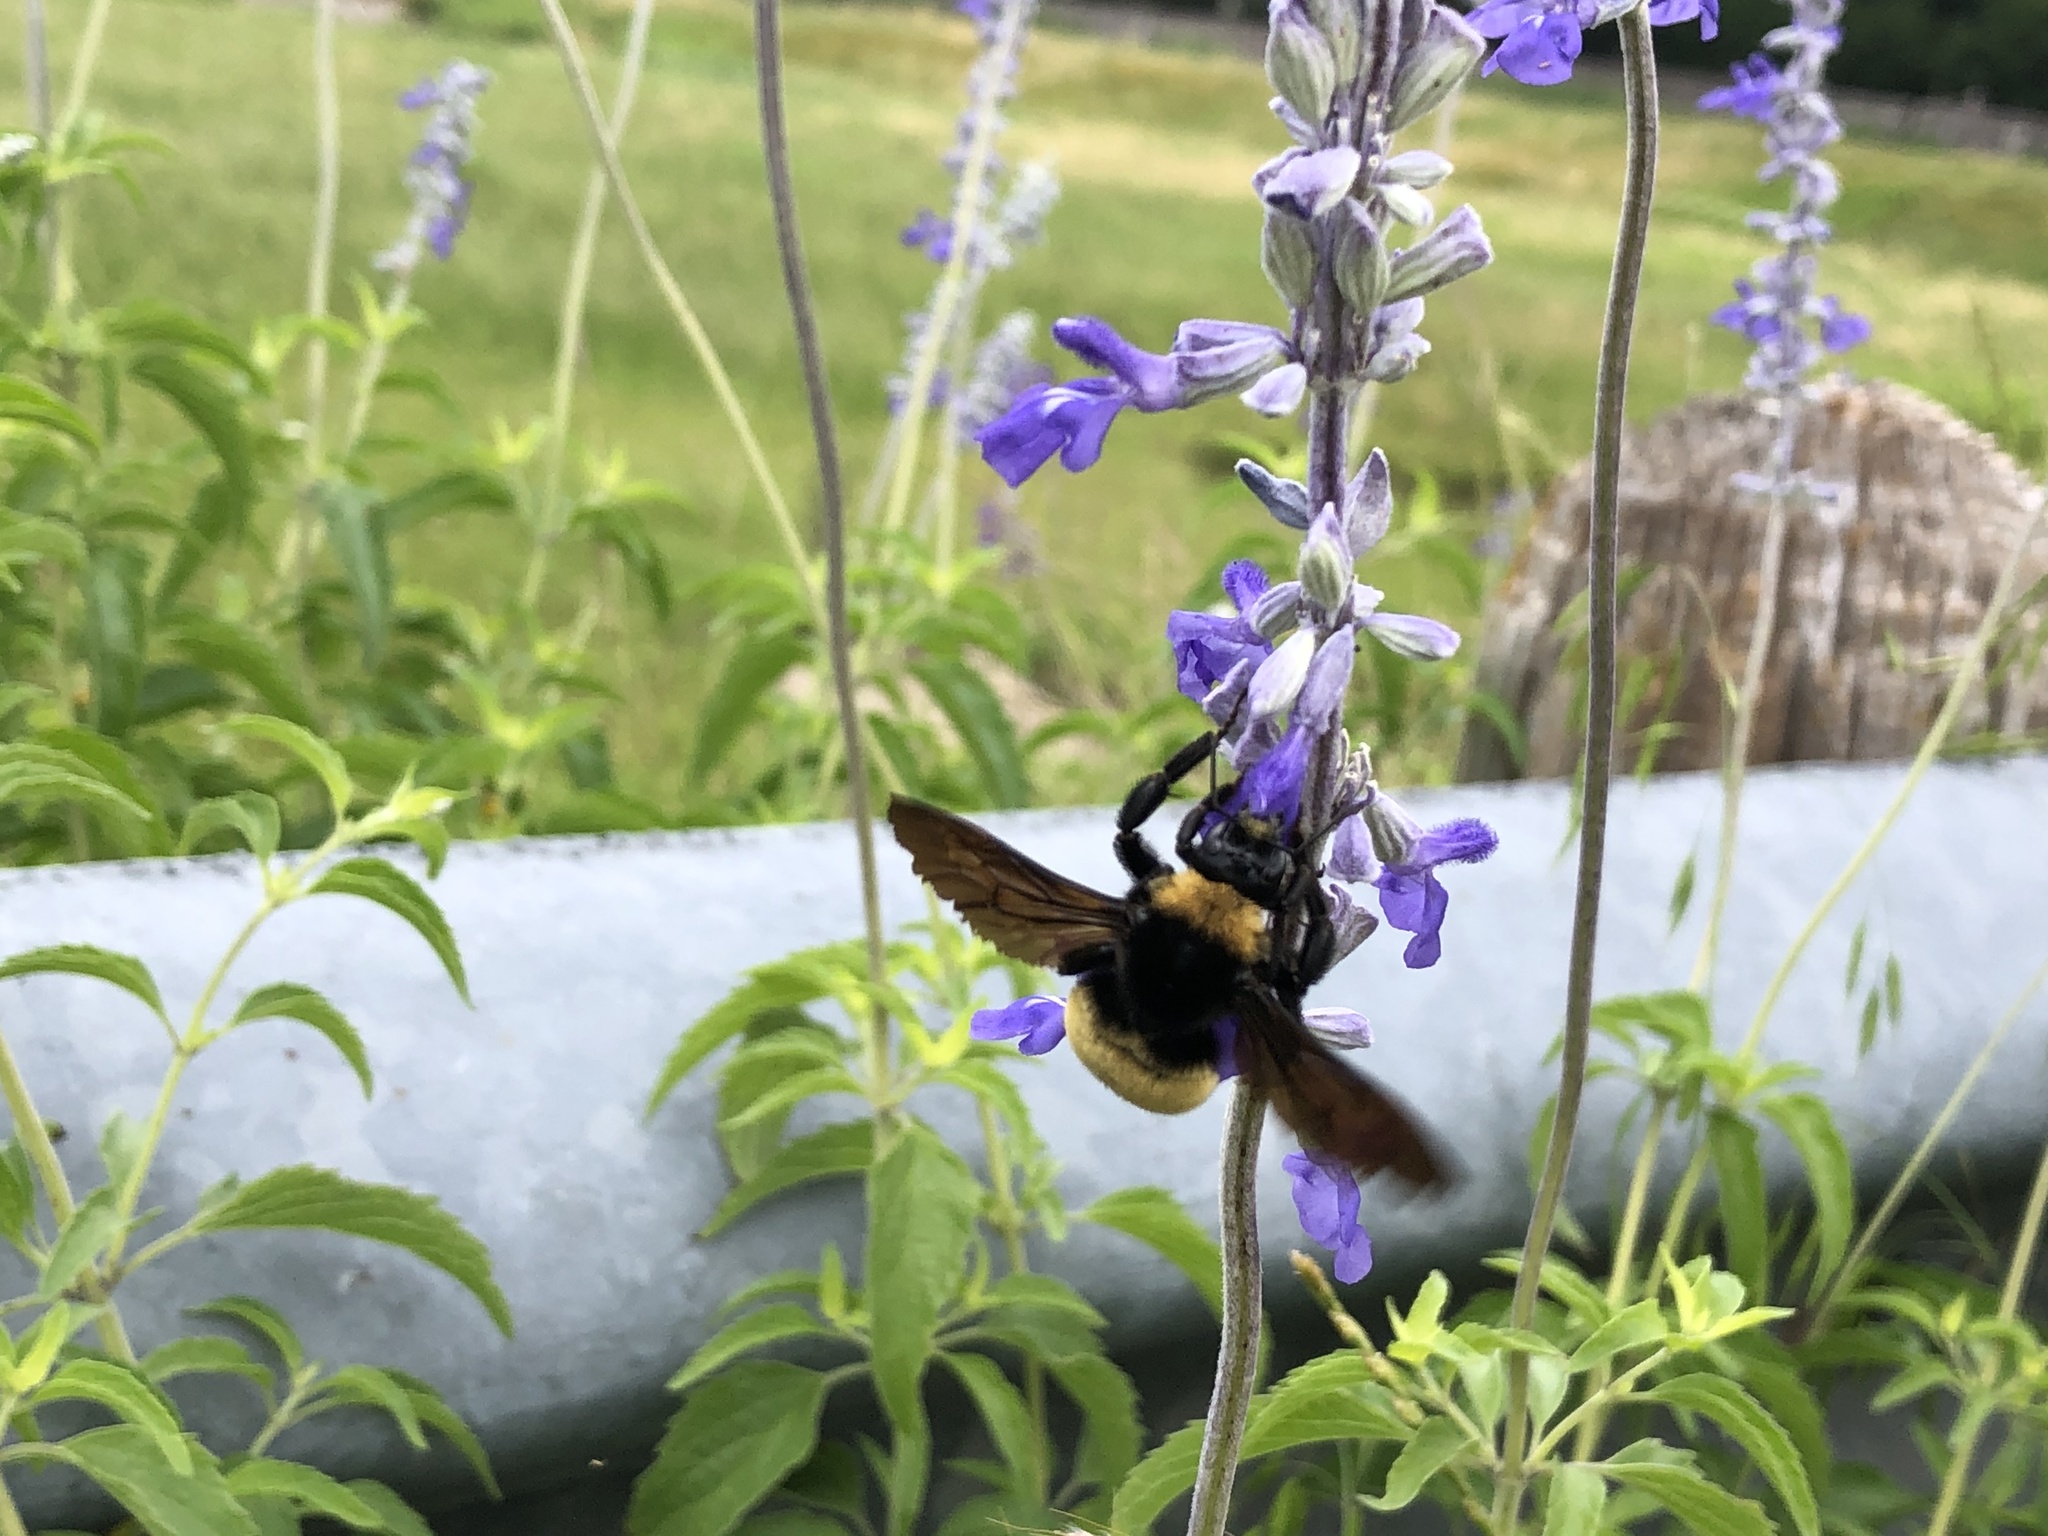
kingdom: Animalia
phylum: Arthropoda
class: Insecta
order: Hymenoptera
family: Apidae
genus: Bombus
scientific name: Bombus pensylvanicus
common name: Bumble bee
